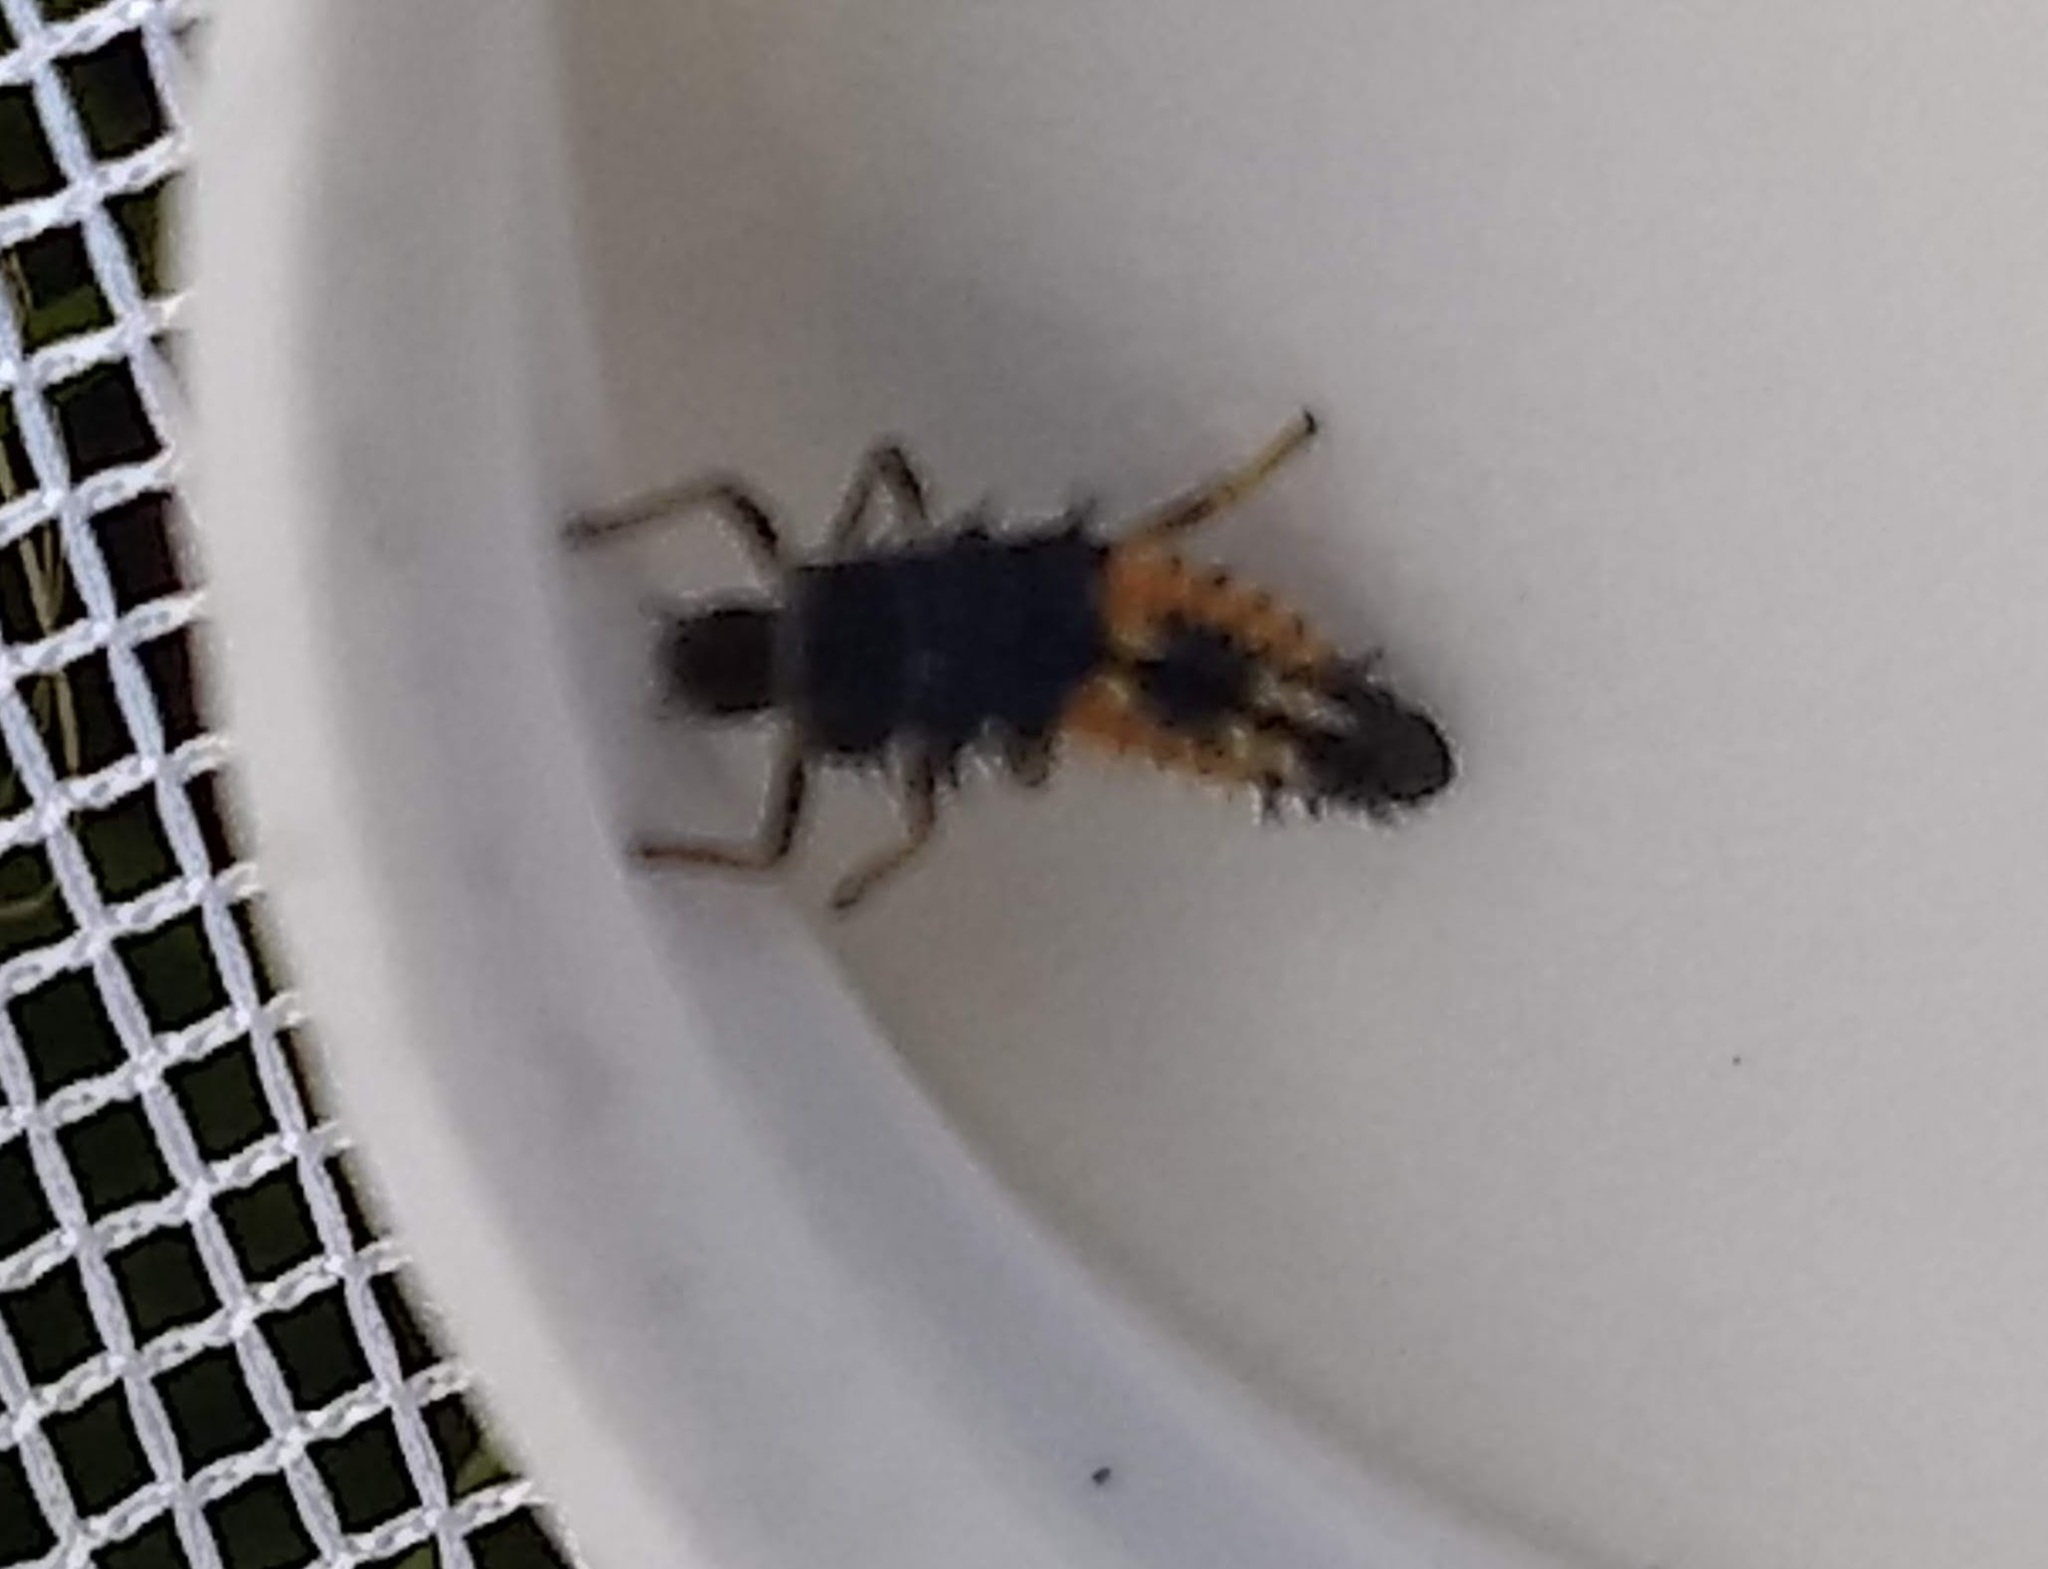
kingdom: Animalia
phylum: Arthropoda
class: Insecta
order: Coleoptera
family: Coccinellidae
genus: Harmonia
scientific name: Harmonia axyridis
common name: Harlequin ladybird
